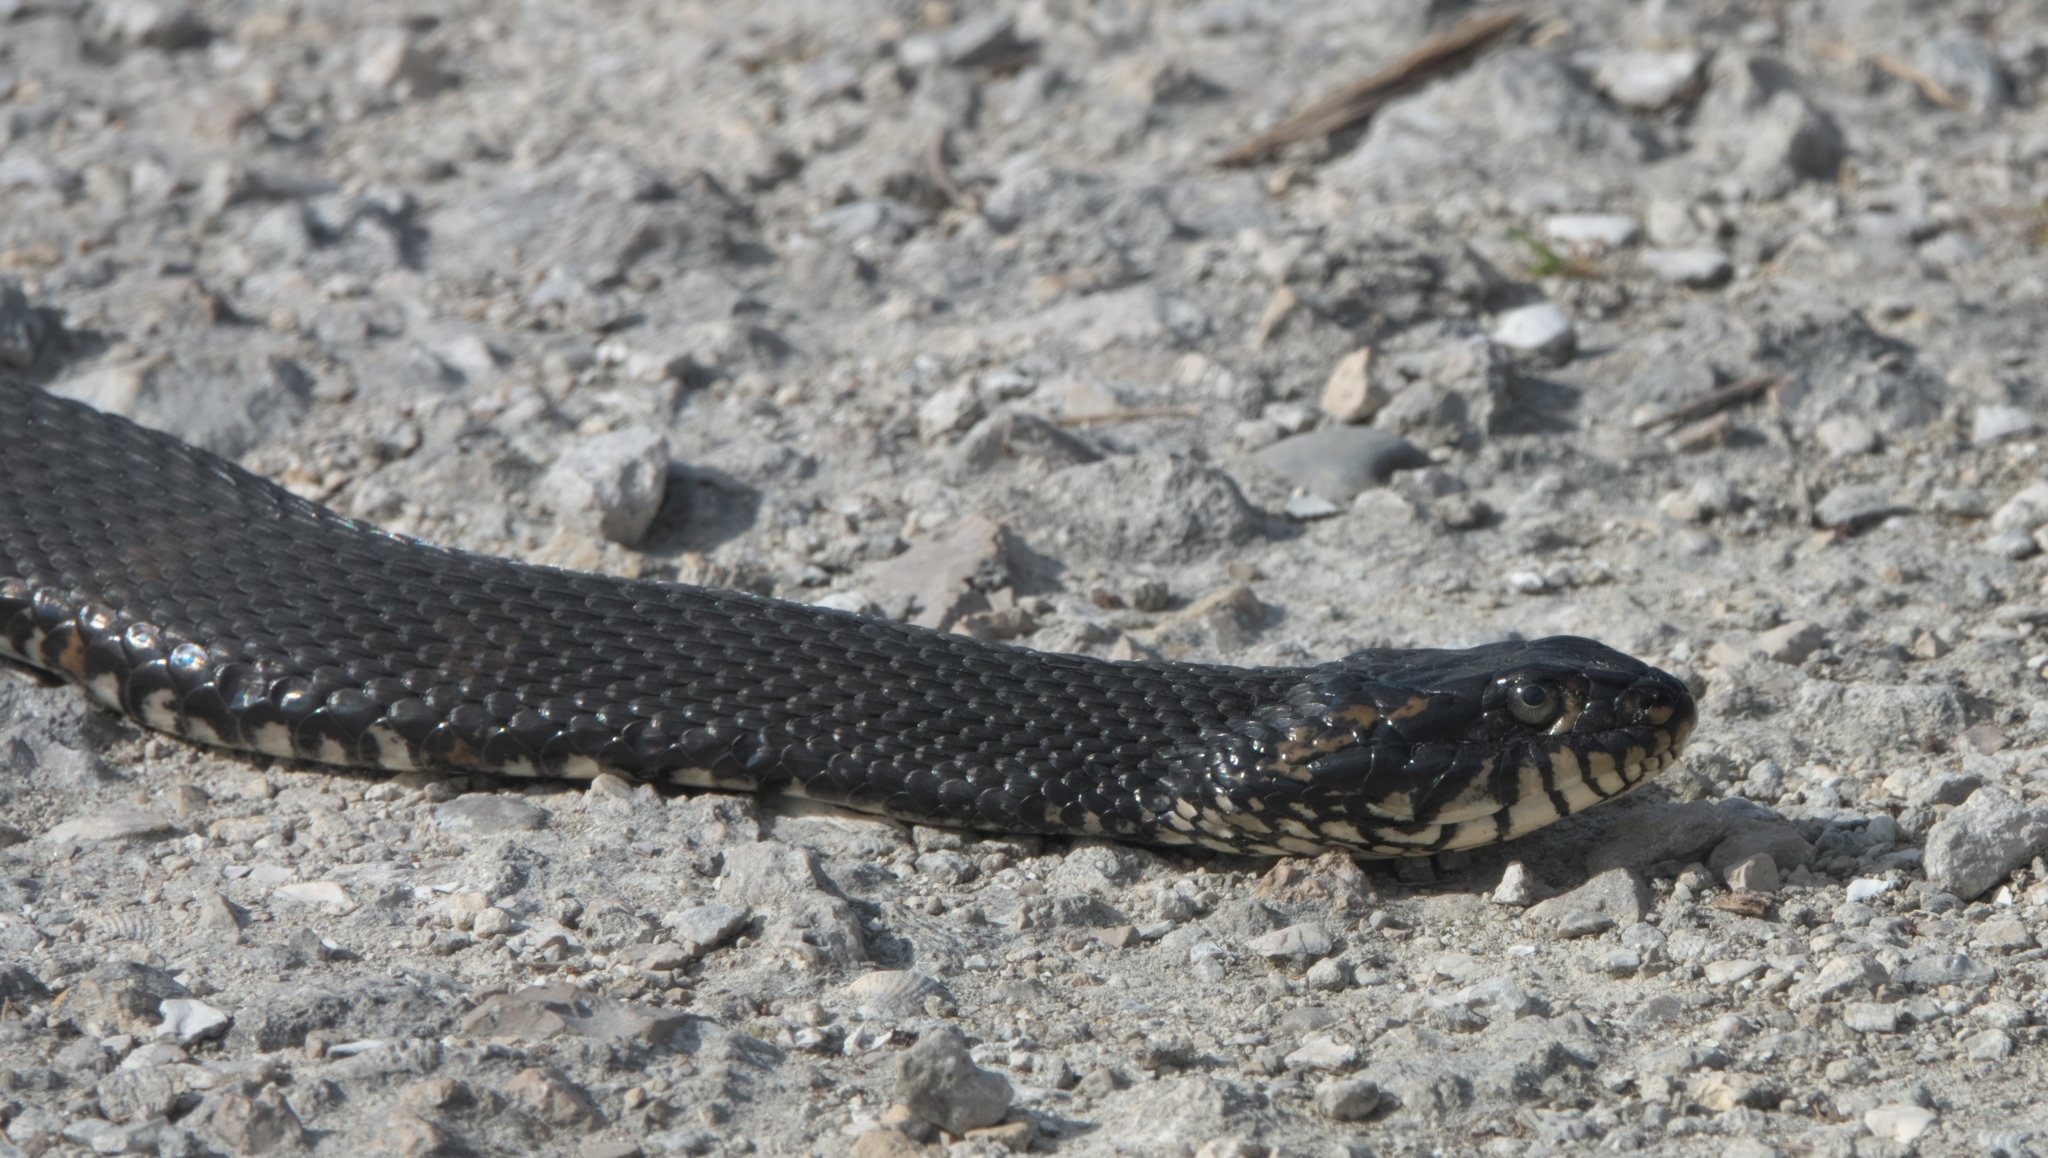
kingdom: Animalia
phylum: Chordata
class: Squamata
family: Colubridae
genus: Nerodia
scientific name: Nerodia fasciata
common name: Southern water snake
